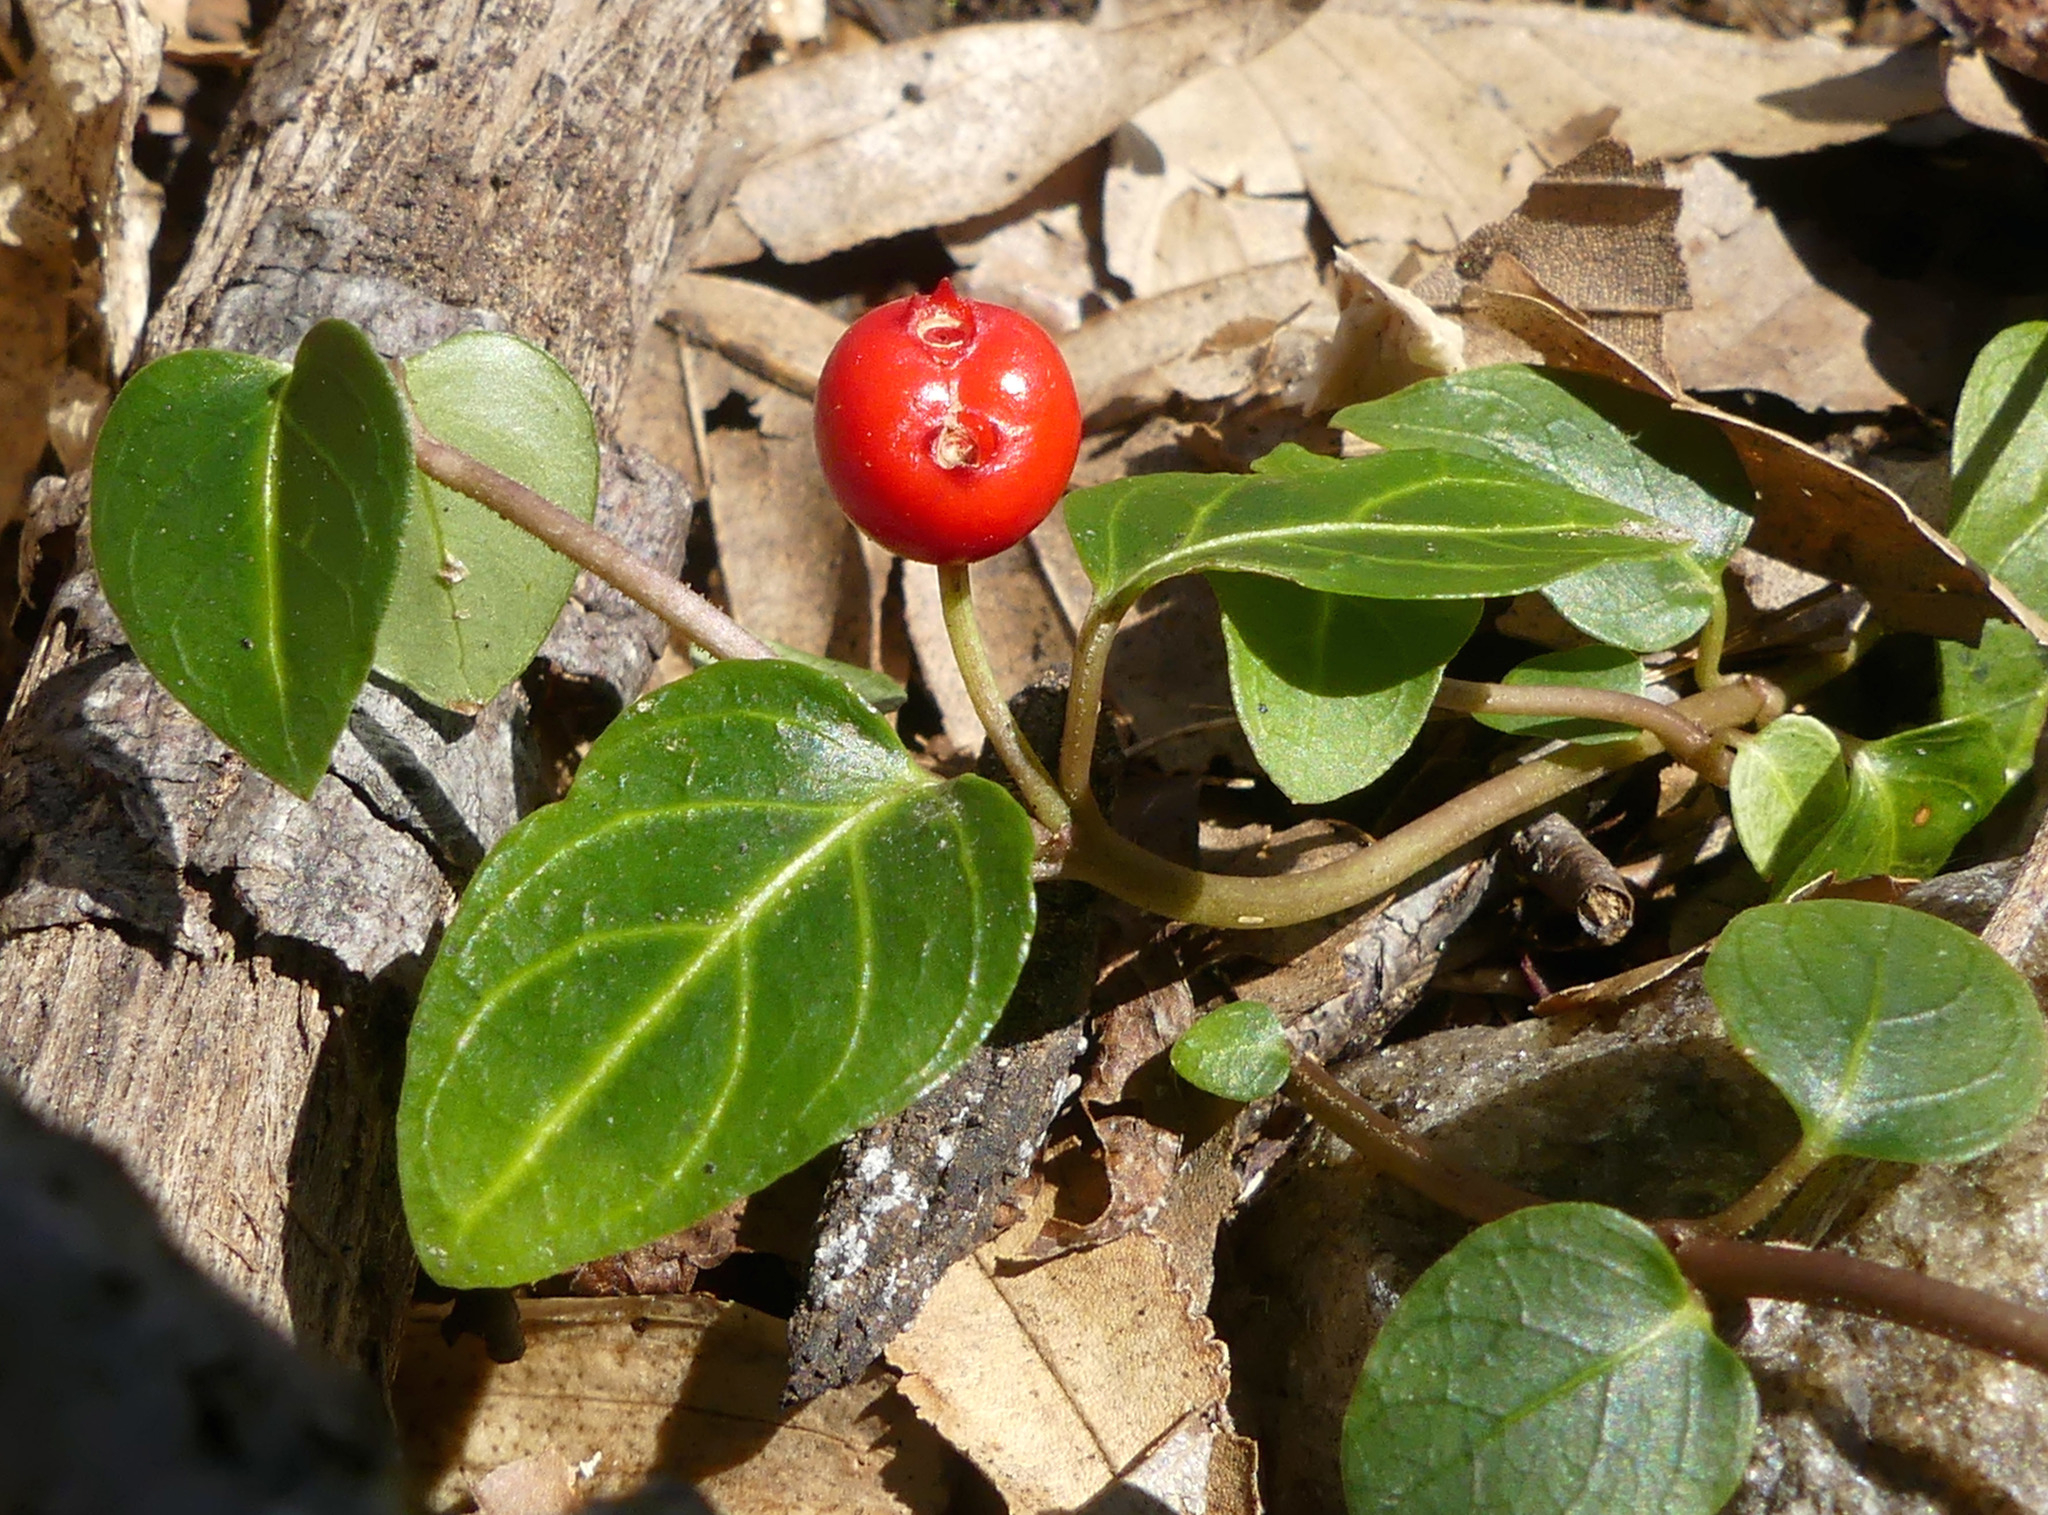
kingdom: Plantae
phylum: Tracheophyta
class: Magnoliopsida
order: Gentianales
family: Rubiaceae
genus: Mitchella
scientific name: Mitchella repens
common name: Partridge-berry
